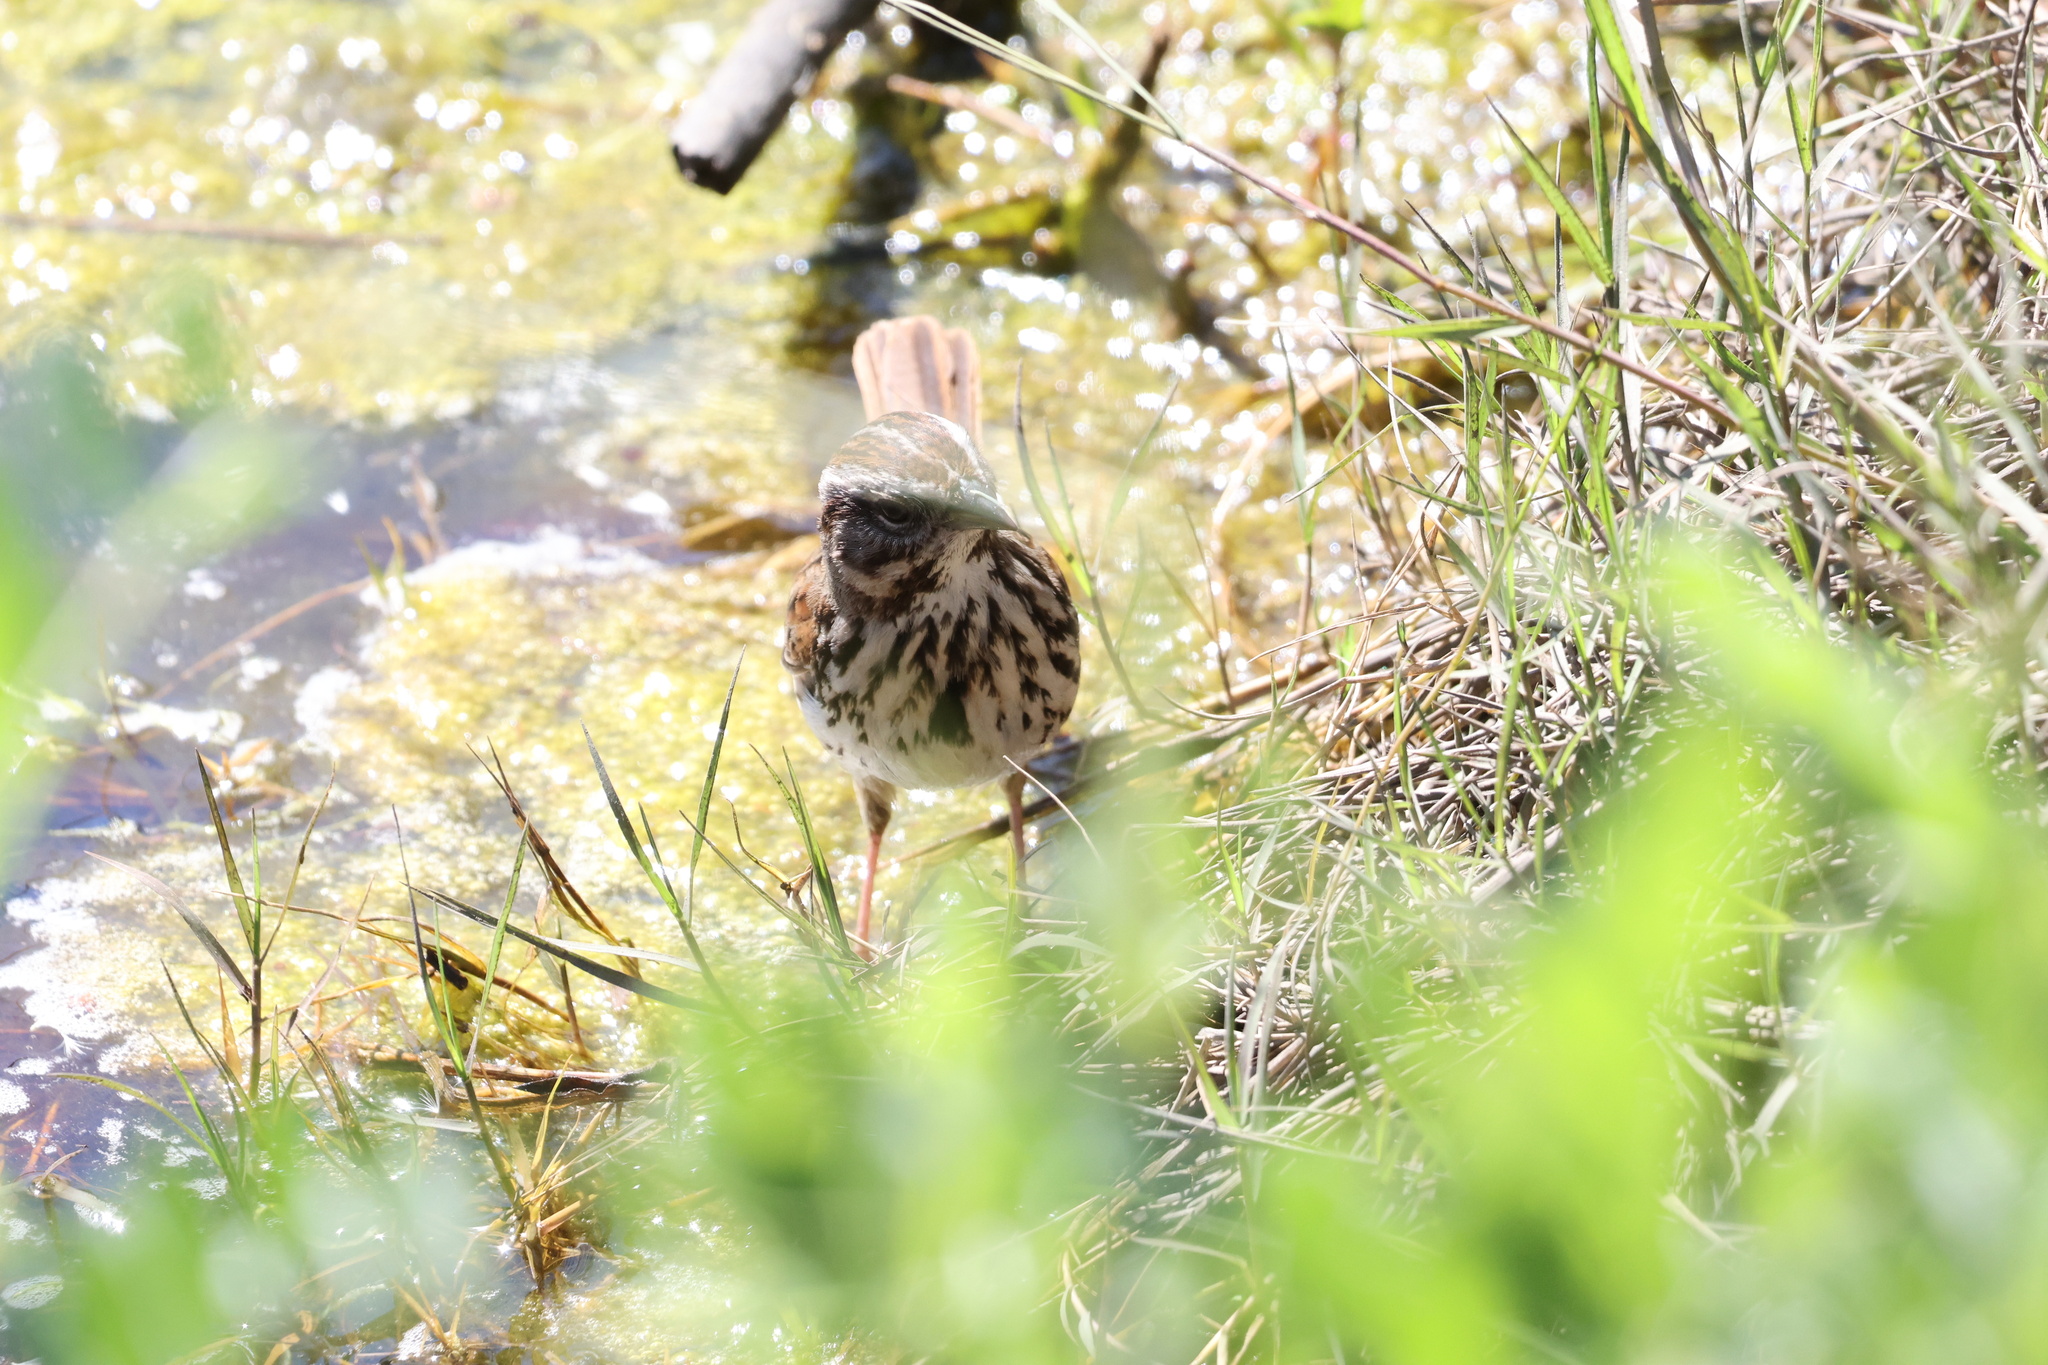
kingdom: Animalia
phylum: Chordata
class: Aves
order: Passeriformes
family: Passerellidae
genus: Melospiza
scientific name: Melospiza melodia
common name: Song sparrow
